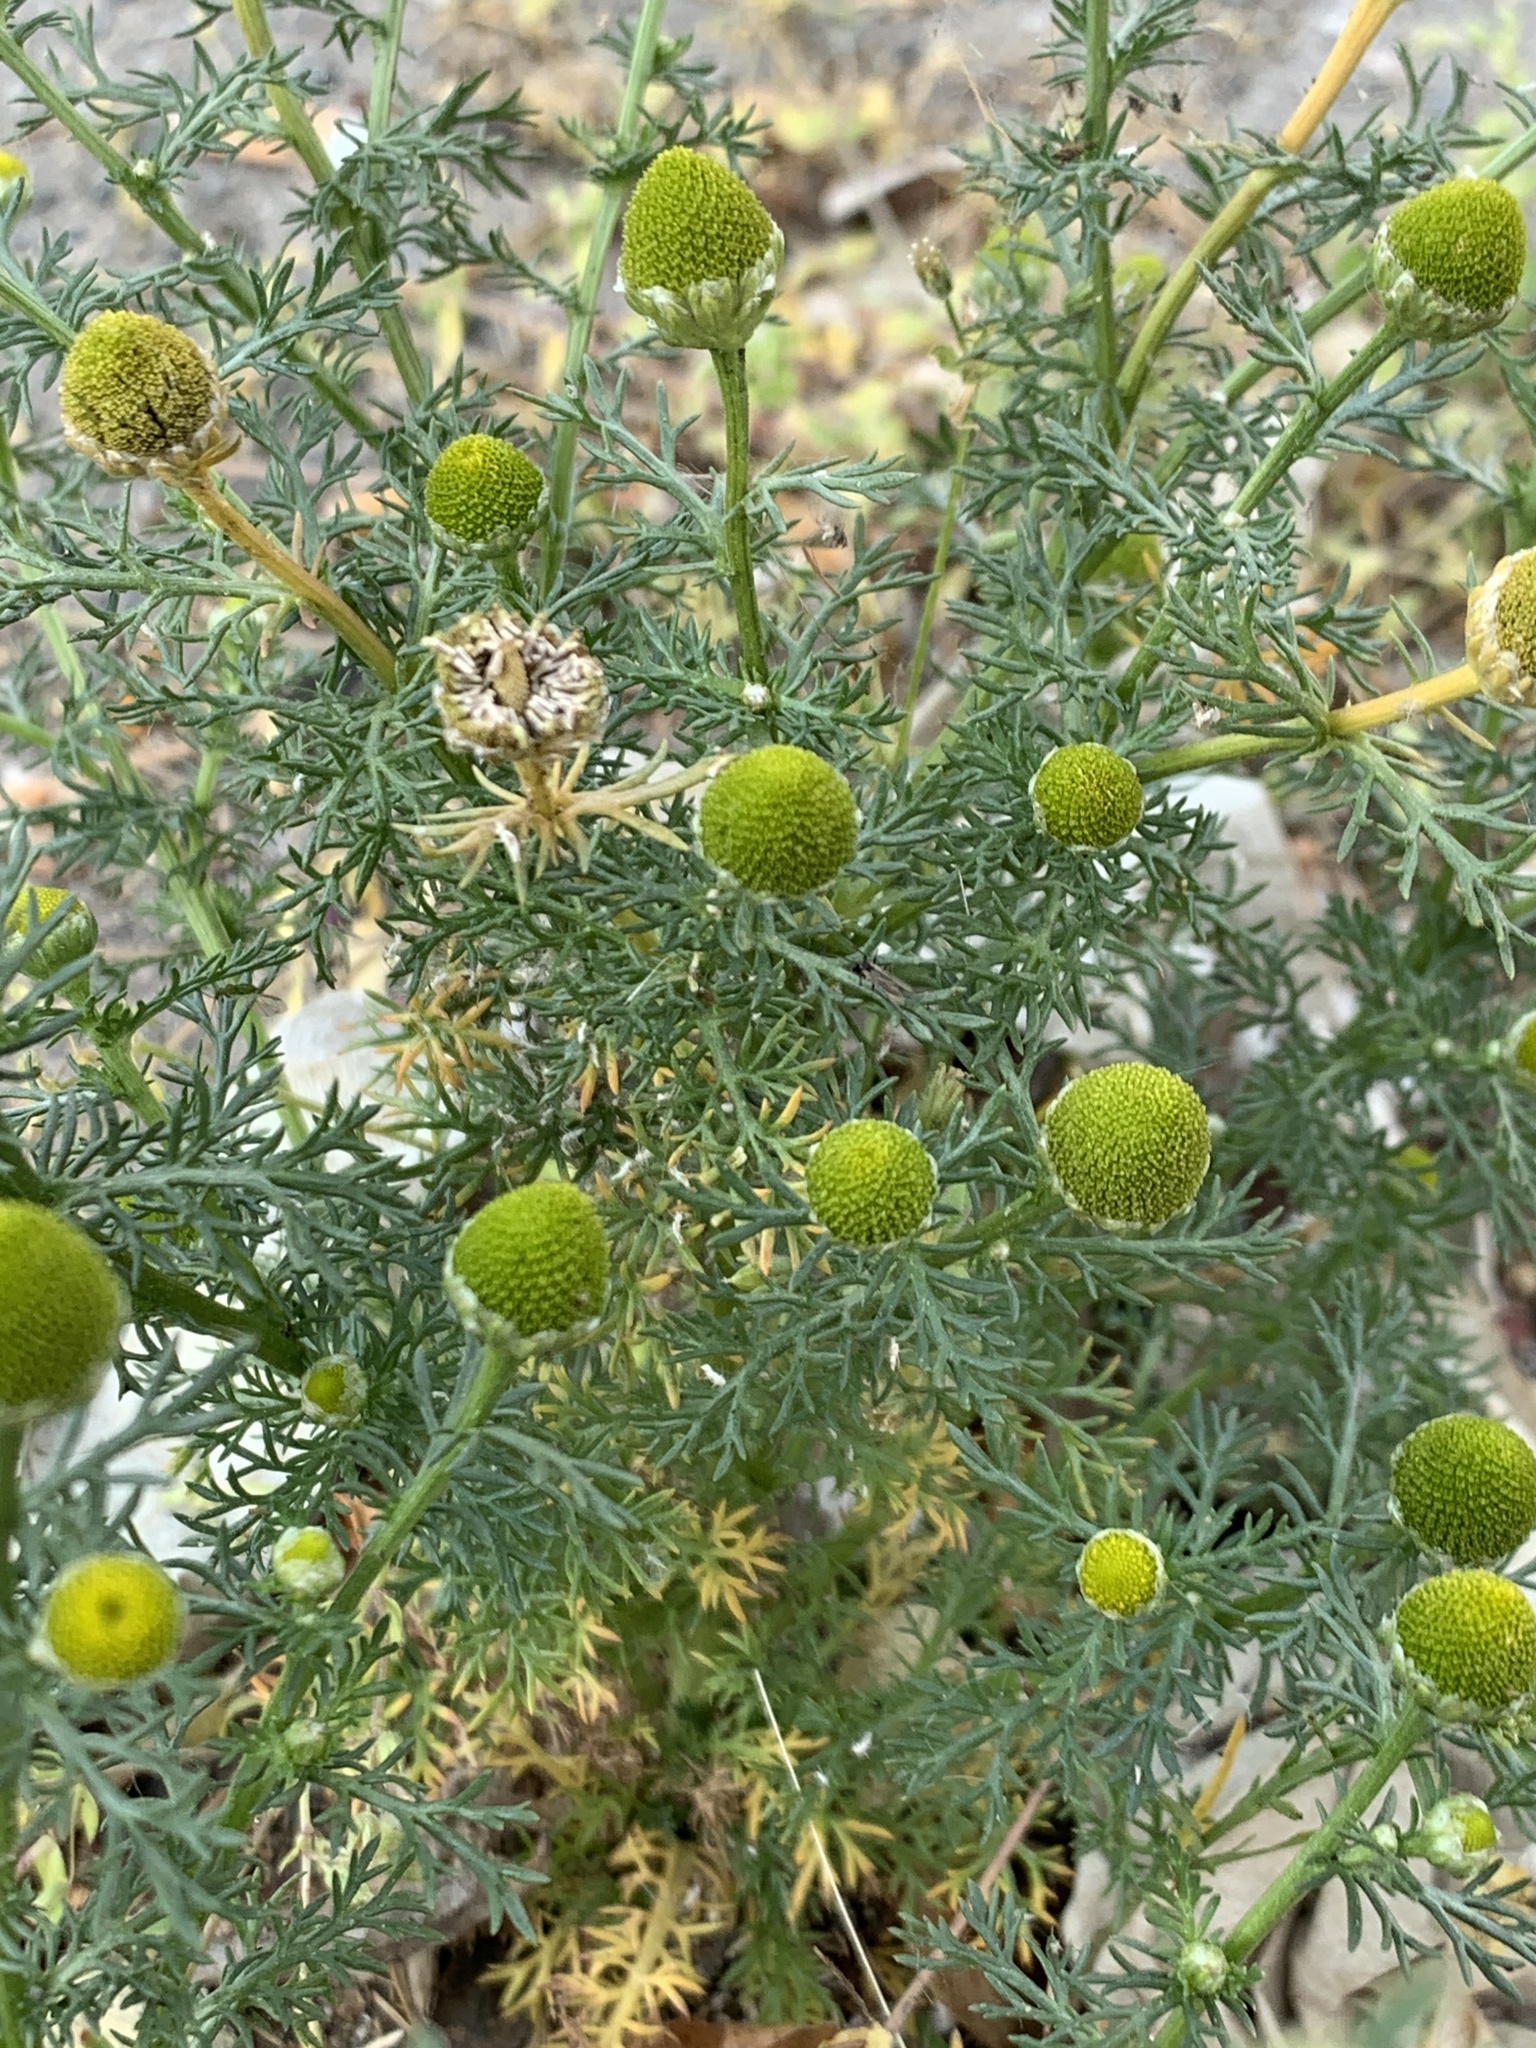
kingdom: Plantae
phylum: Tracheophyta
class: Magnoliopsida
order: Asterales
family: Asteraceae
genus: Matricaria
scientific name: Matricaria discoidea
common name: Disc mayweed
